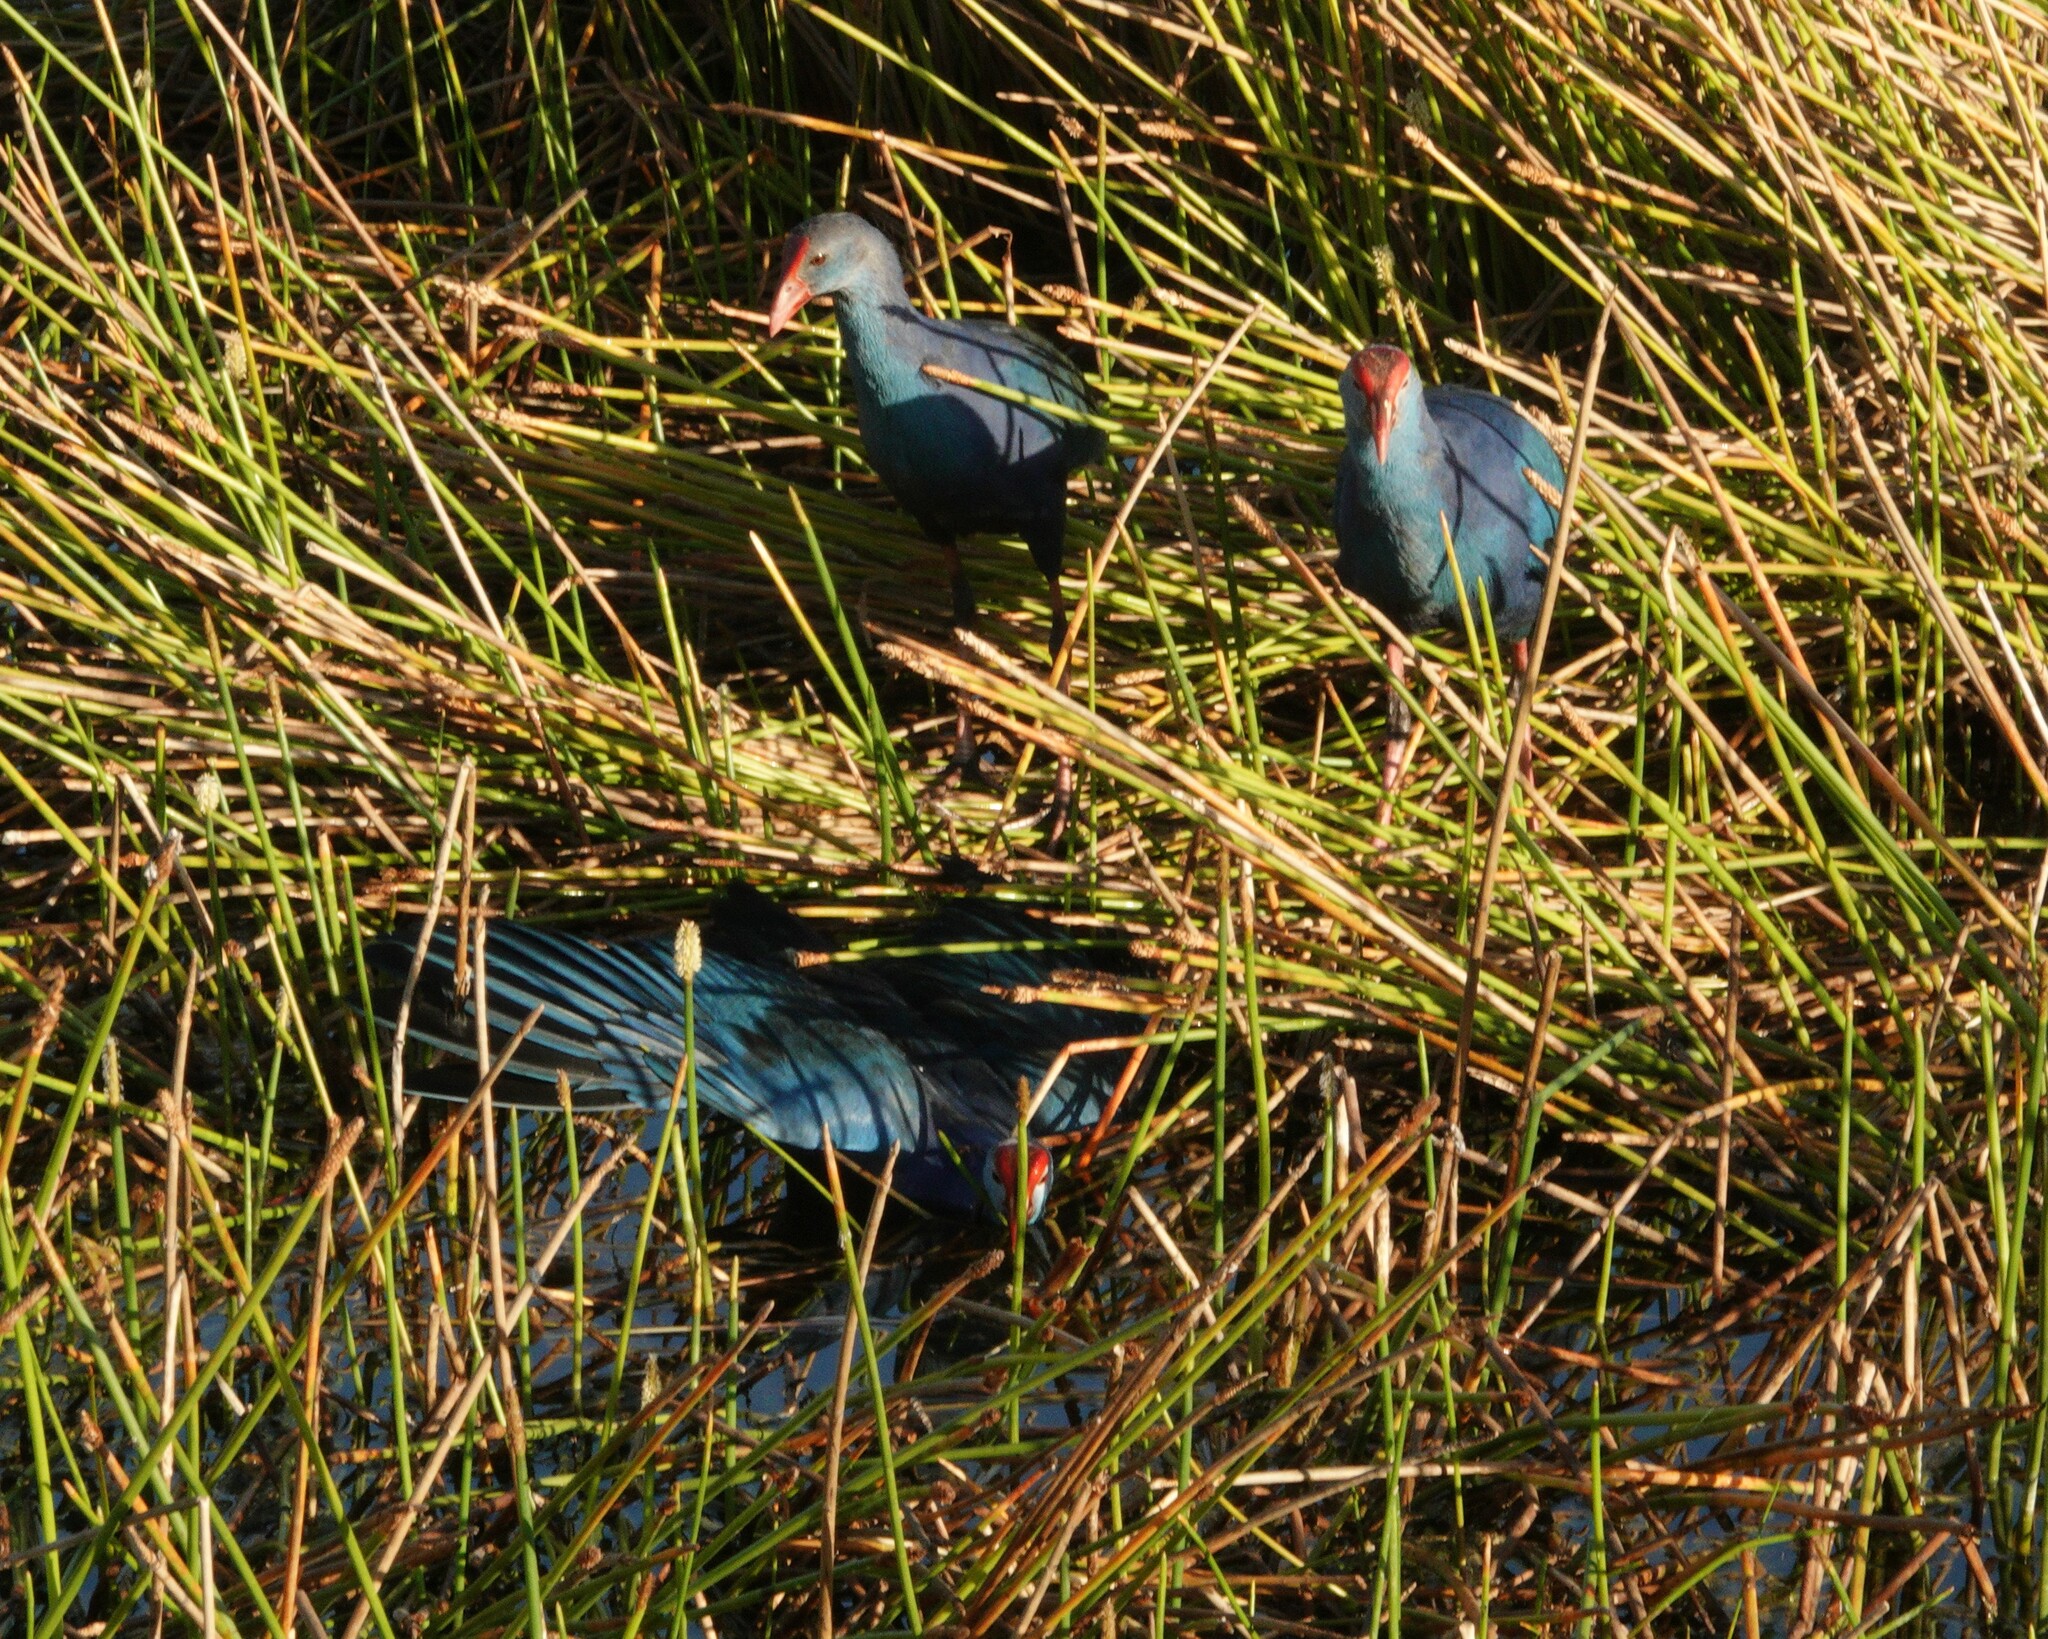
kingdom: Animalia
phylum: Chordata
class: Aves
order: Gruiformes
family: Rallidae
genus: Porphyrio
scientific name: Porphyrio porphyrio
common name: Purple swamphen
